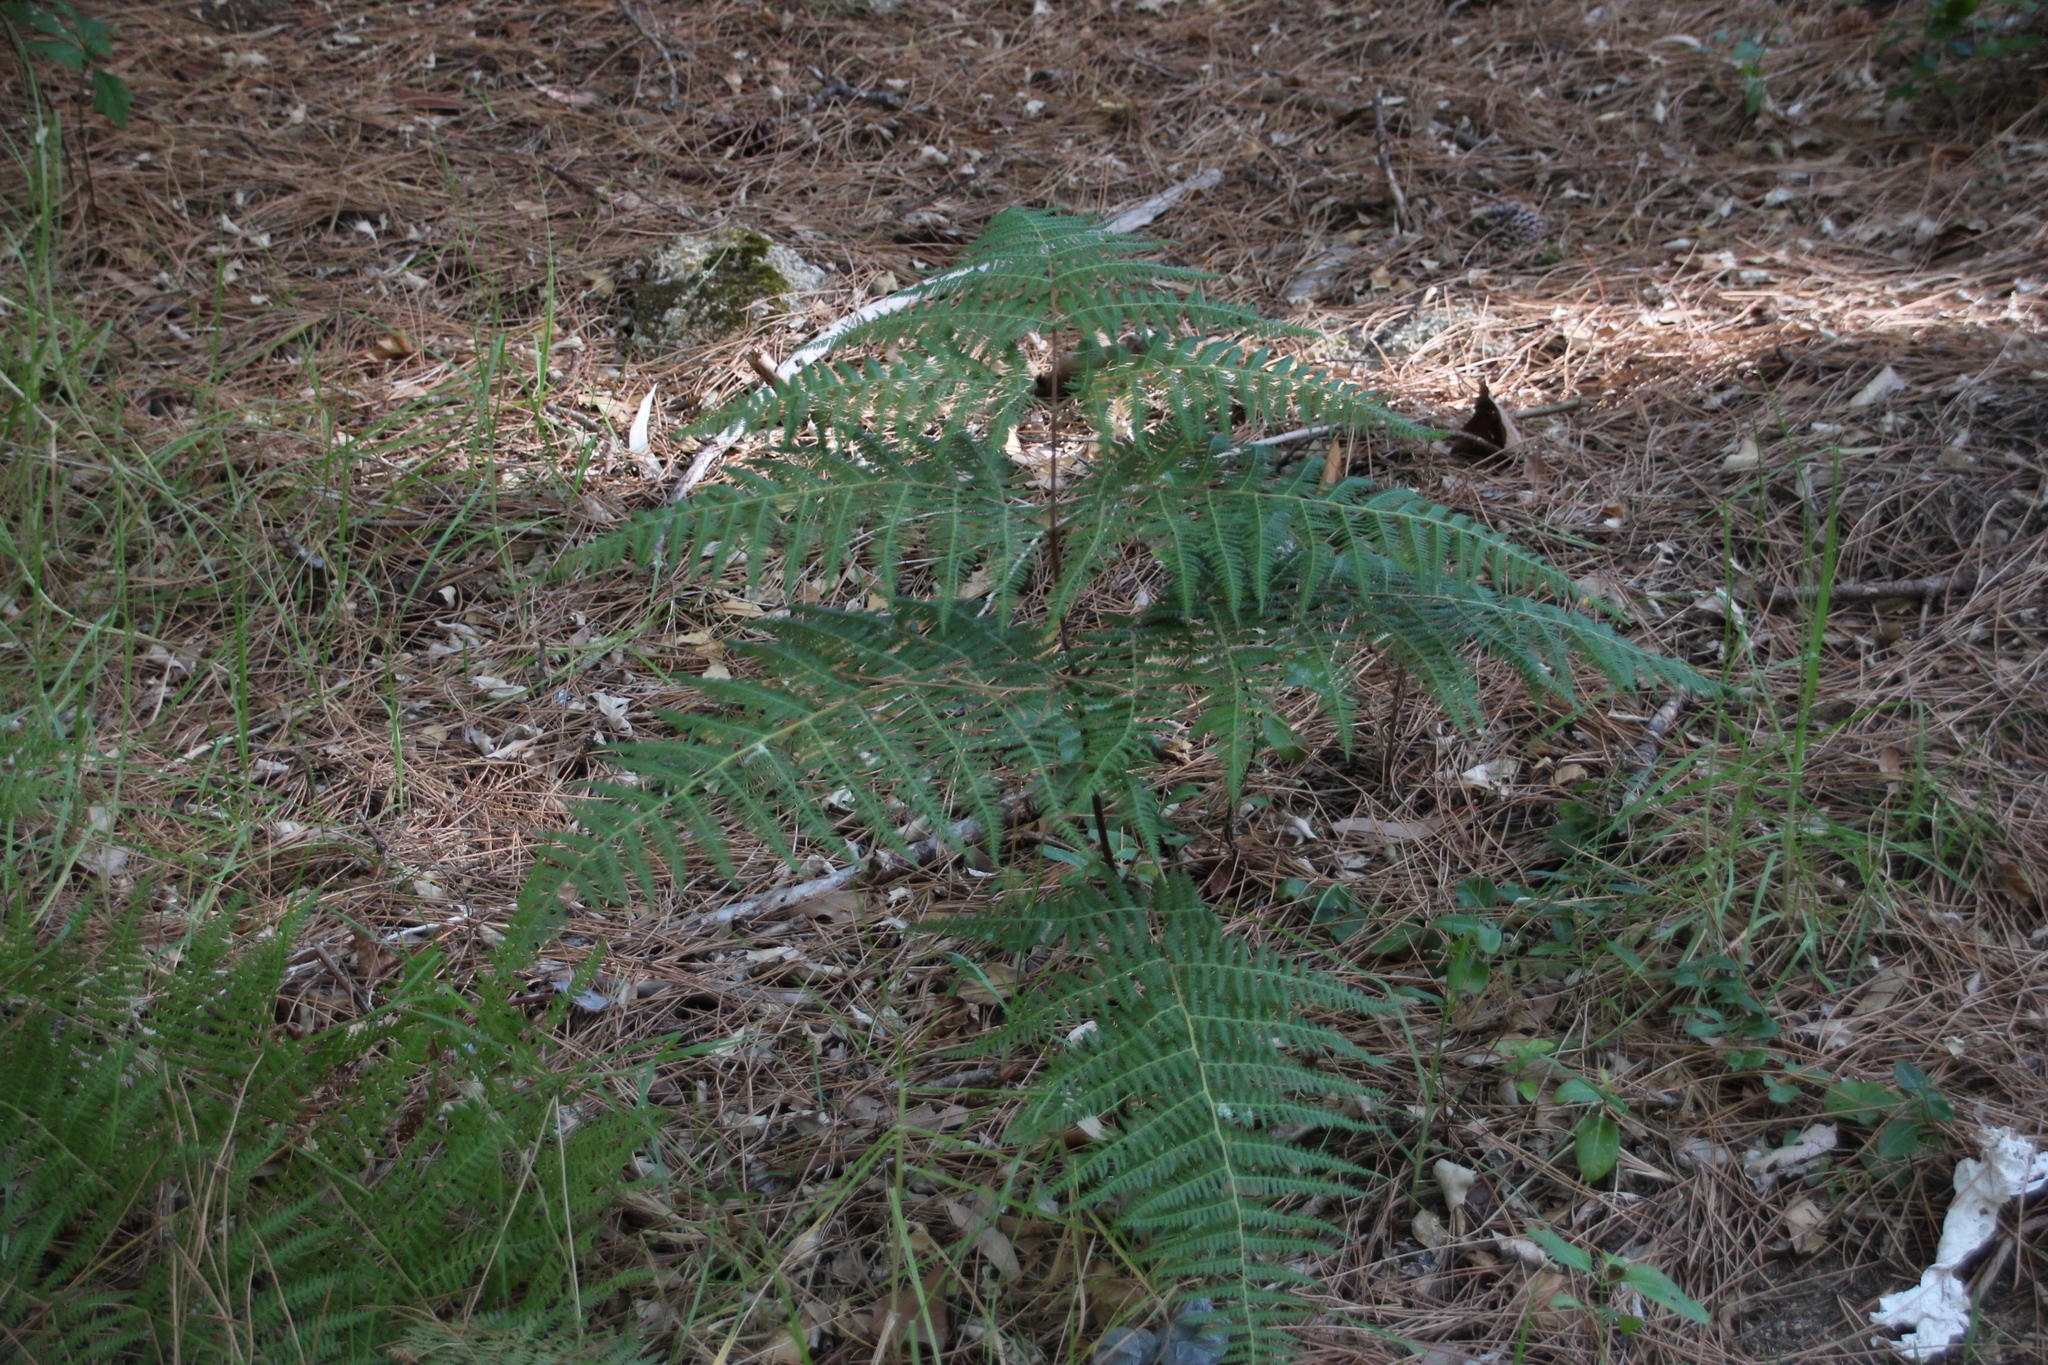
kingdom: Plantae
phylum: Tracheophyta
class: Polypodiopsida
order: Polypodiales
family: Dennstaedtiaceae
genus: Pteridium
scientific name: Pteridium aquilinum
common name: Bracken
